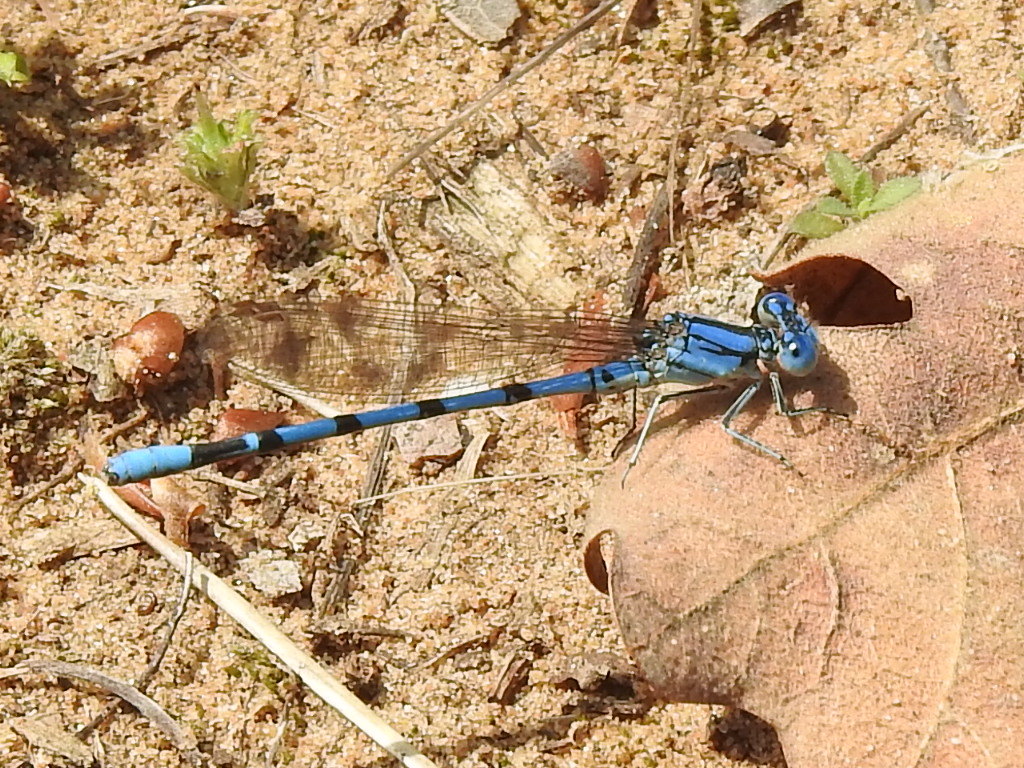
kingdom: Animalia
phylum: Arthropoda
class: Insecta
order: Odonata
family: Coenagrionidae
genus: Argia
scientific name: Argia nahuana
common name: Aztec dancer
